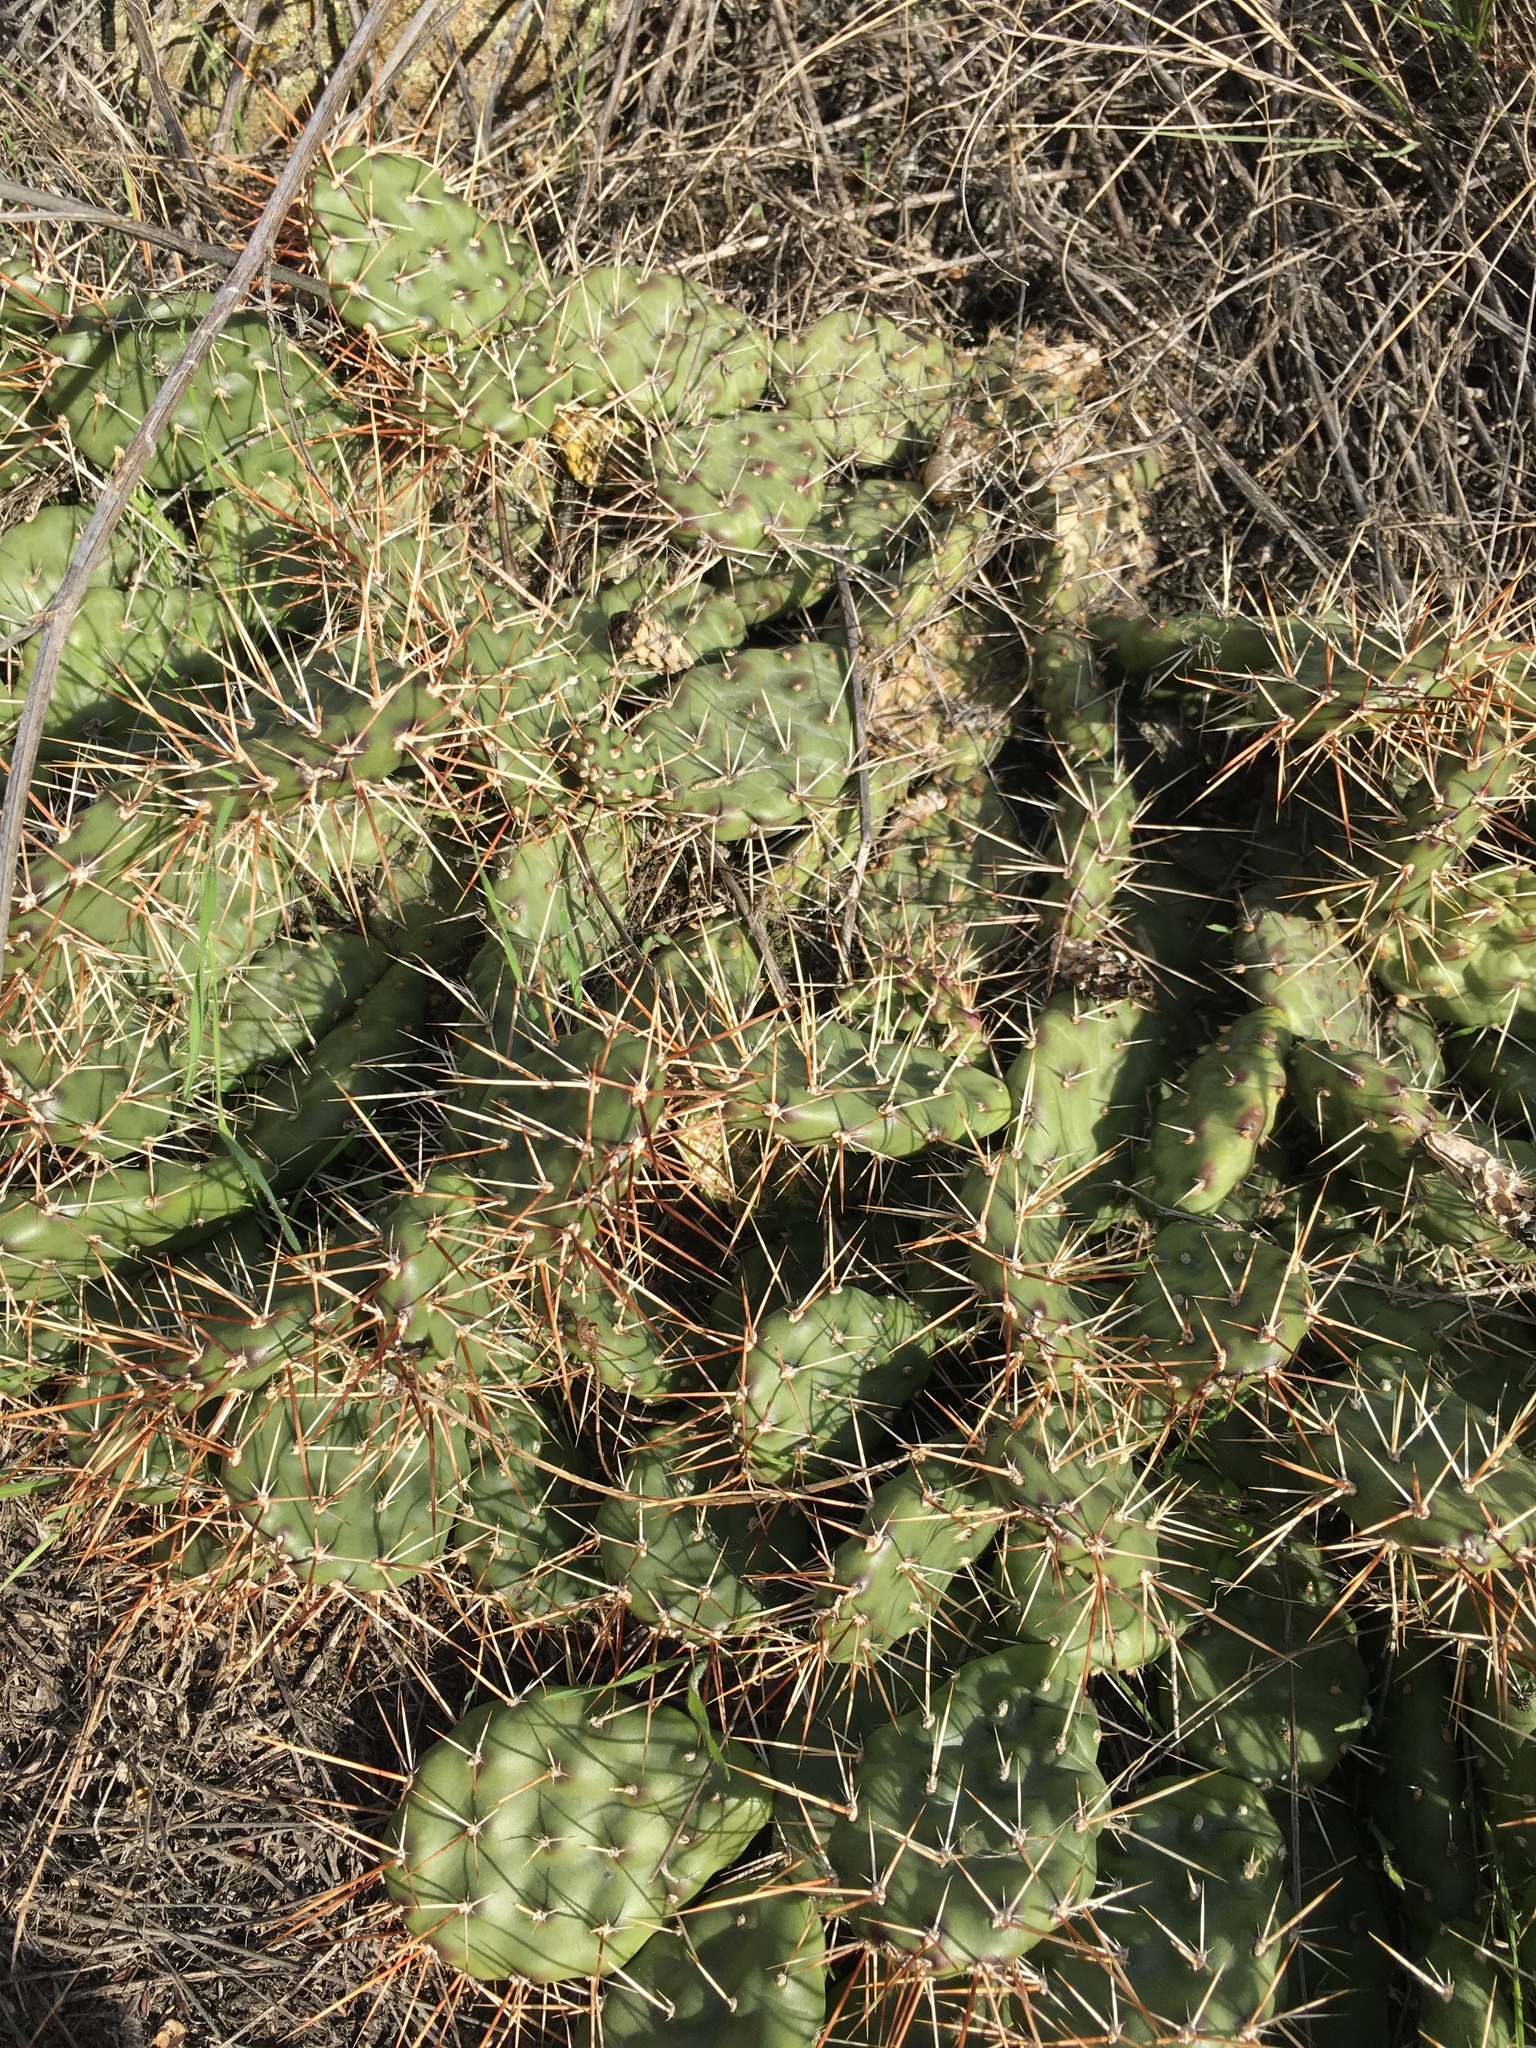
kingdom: Plantae
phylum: Tracheophyta
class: Magnoliopsida
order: Caryophyllales
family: Cactaceae
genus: Opuntia
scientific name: Opuntia columbiana
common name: Columbia prickly-pear
